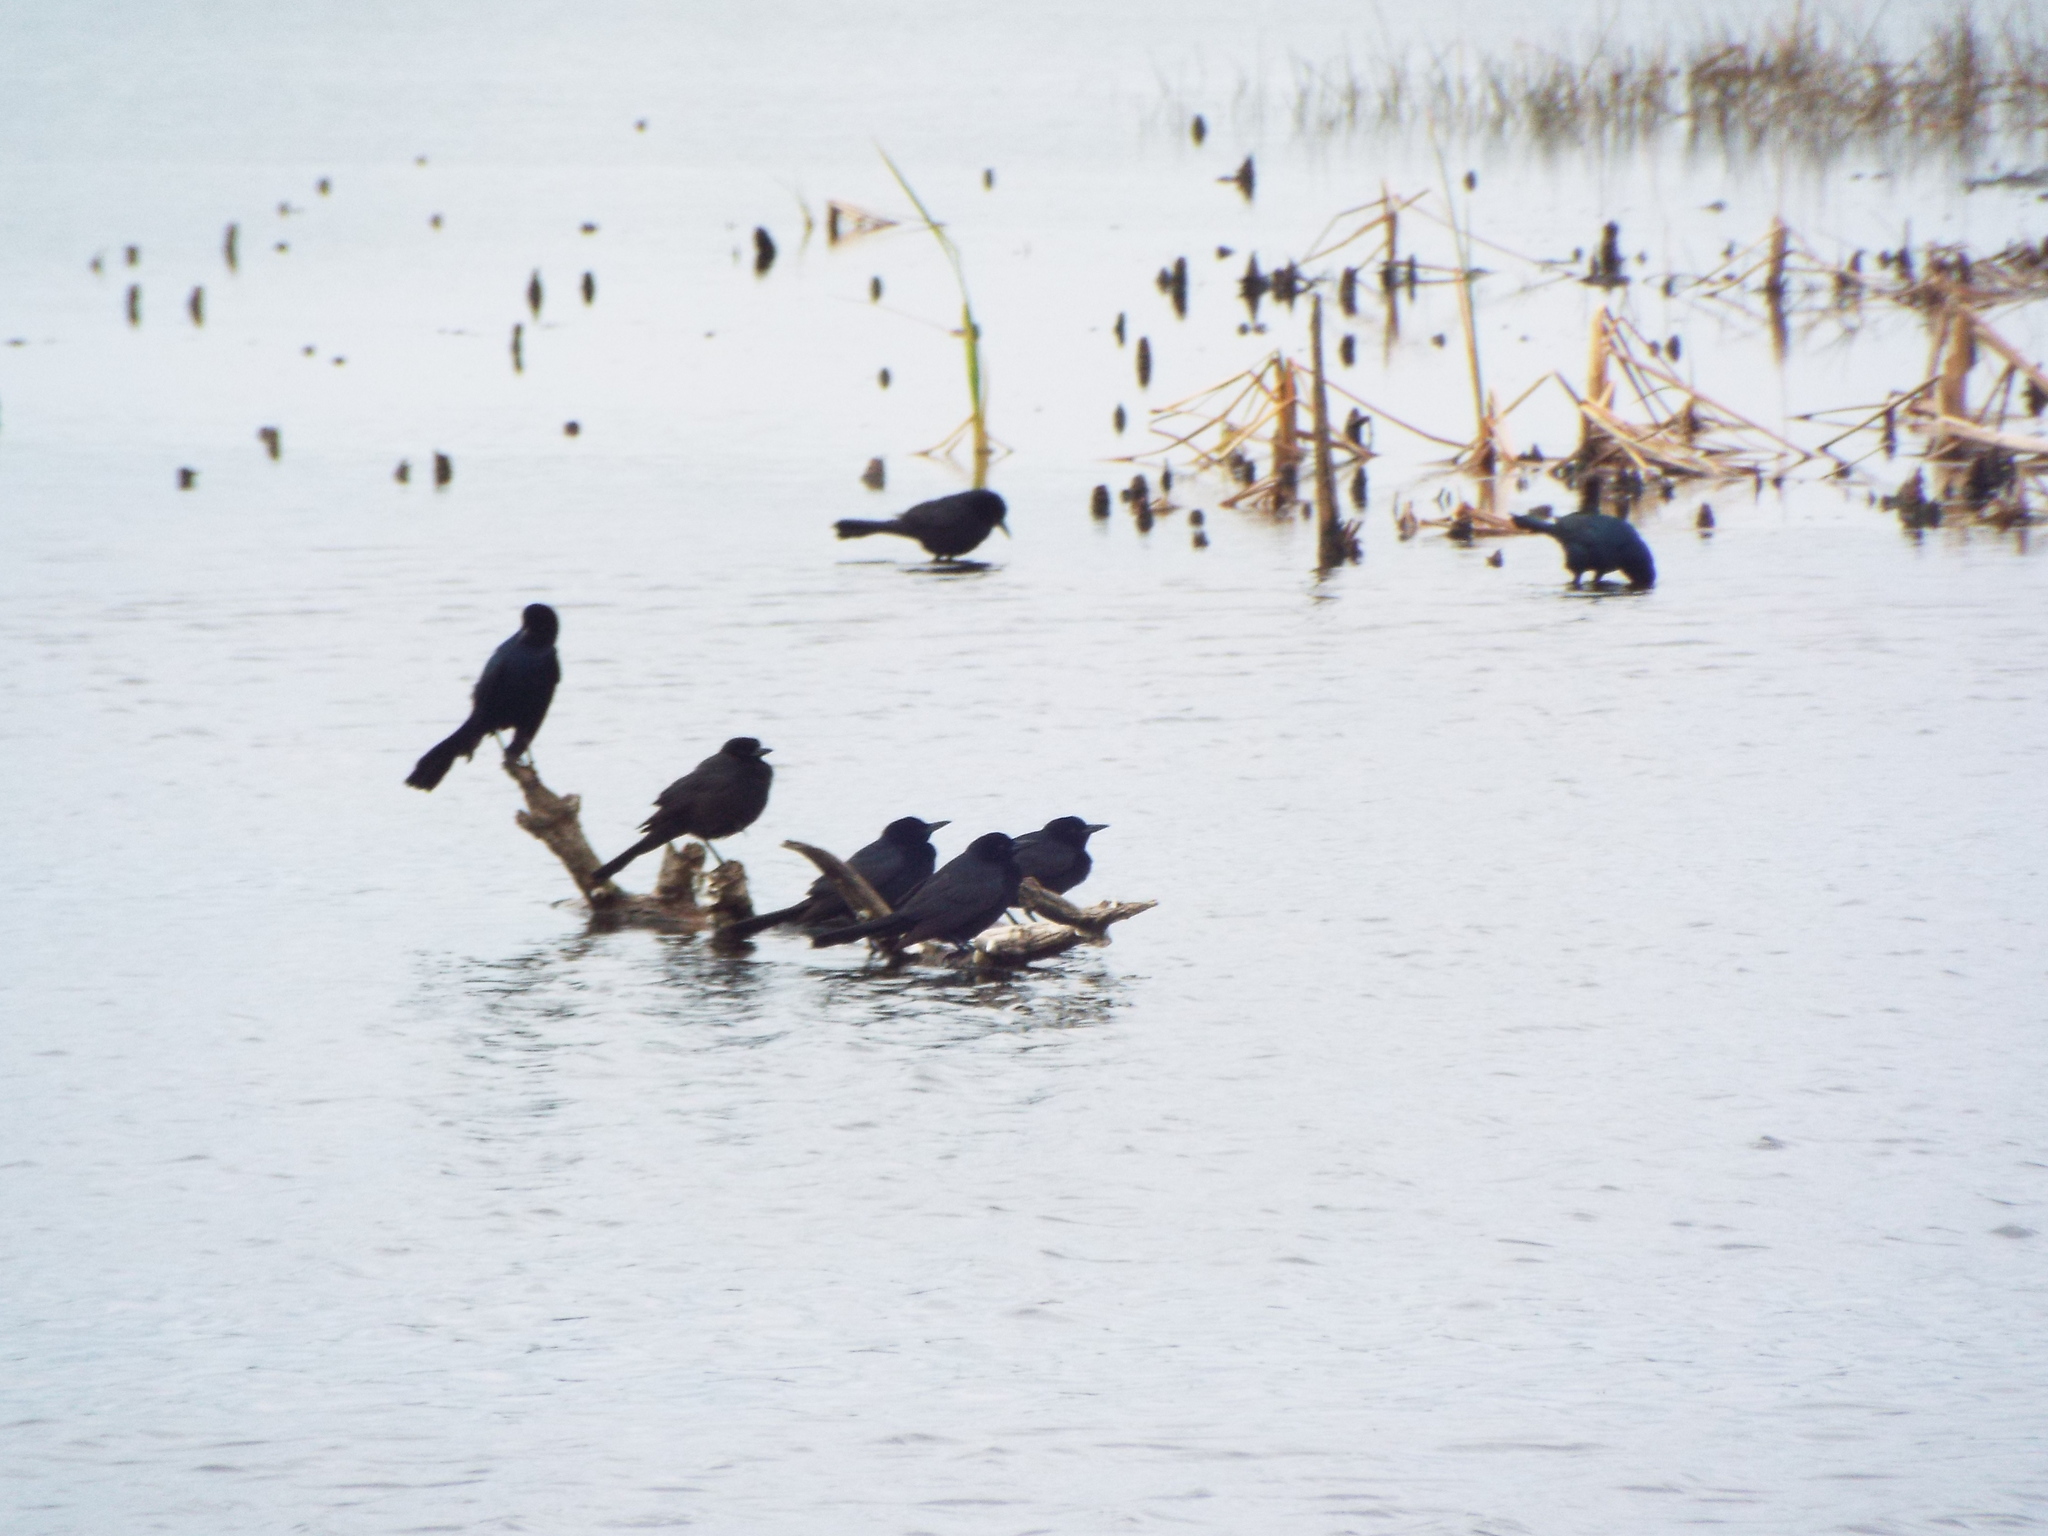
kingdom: Animalia
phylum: Chordata
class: Aves
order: Passeriformes
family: Icteridae
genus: Quiscalus
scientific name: Quiscalus major
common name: Boat-tailed grackle
